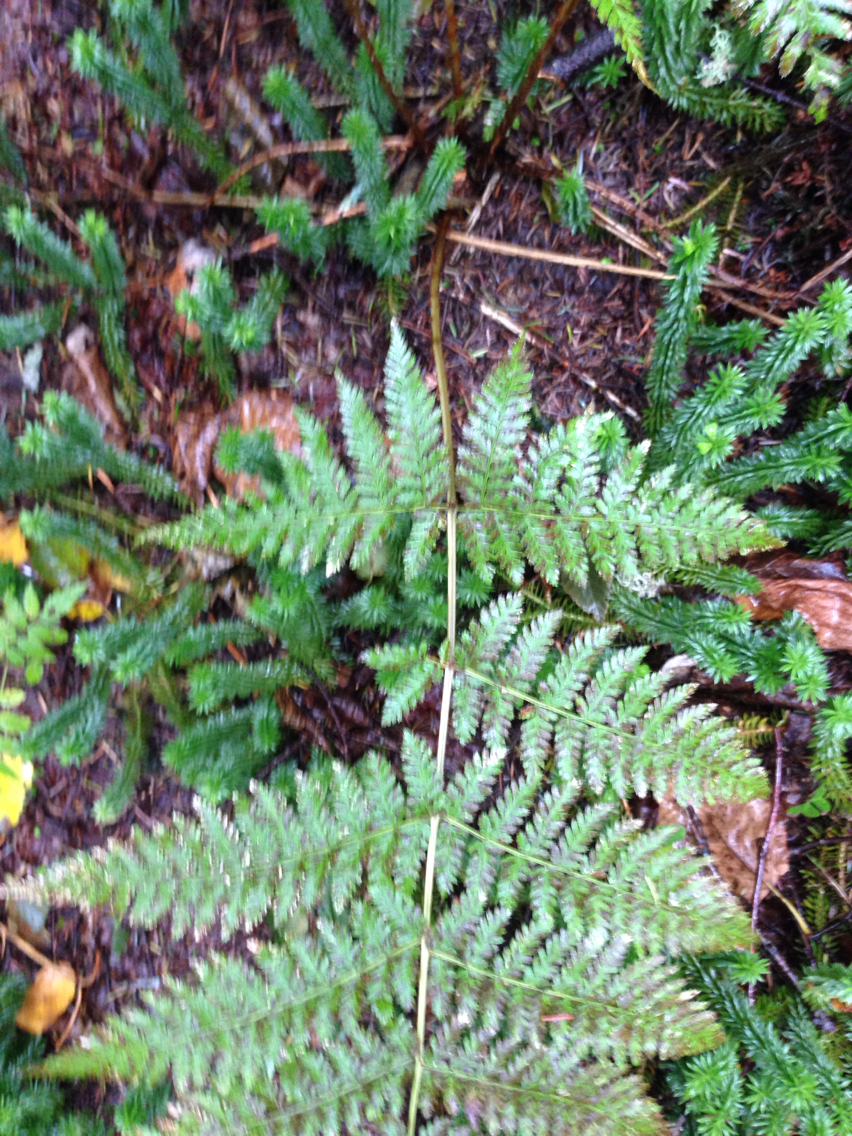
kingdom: Plantae
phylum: Tracheophyta
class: Polypodiopsida
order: Polypodiales
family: Dryopteridaceae
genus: Dryopteris
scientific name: Dryopteris campyloptera
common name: Mountain wood fern
